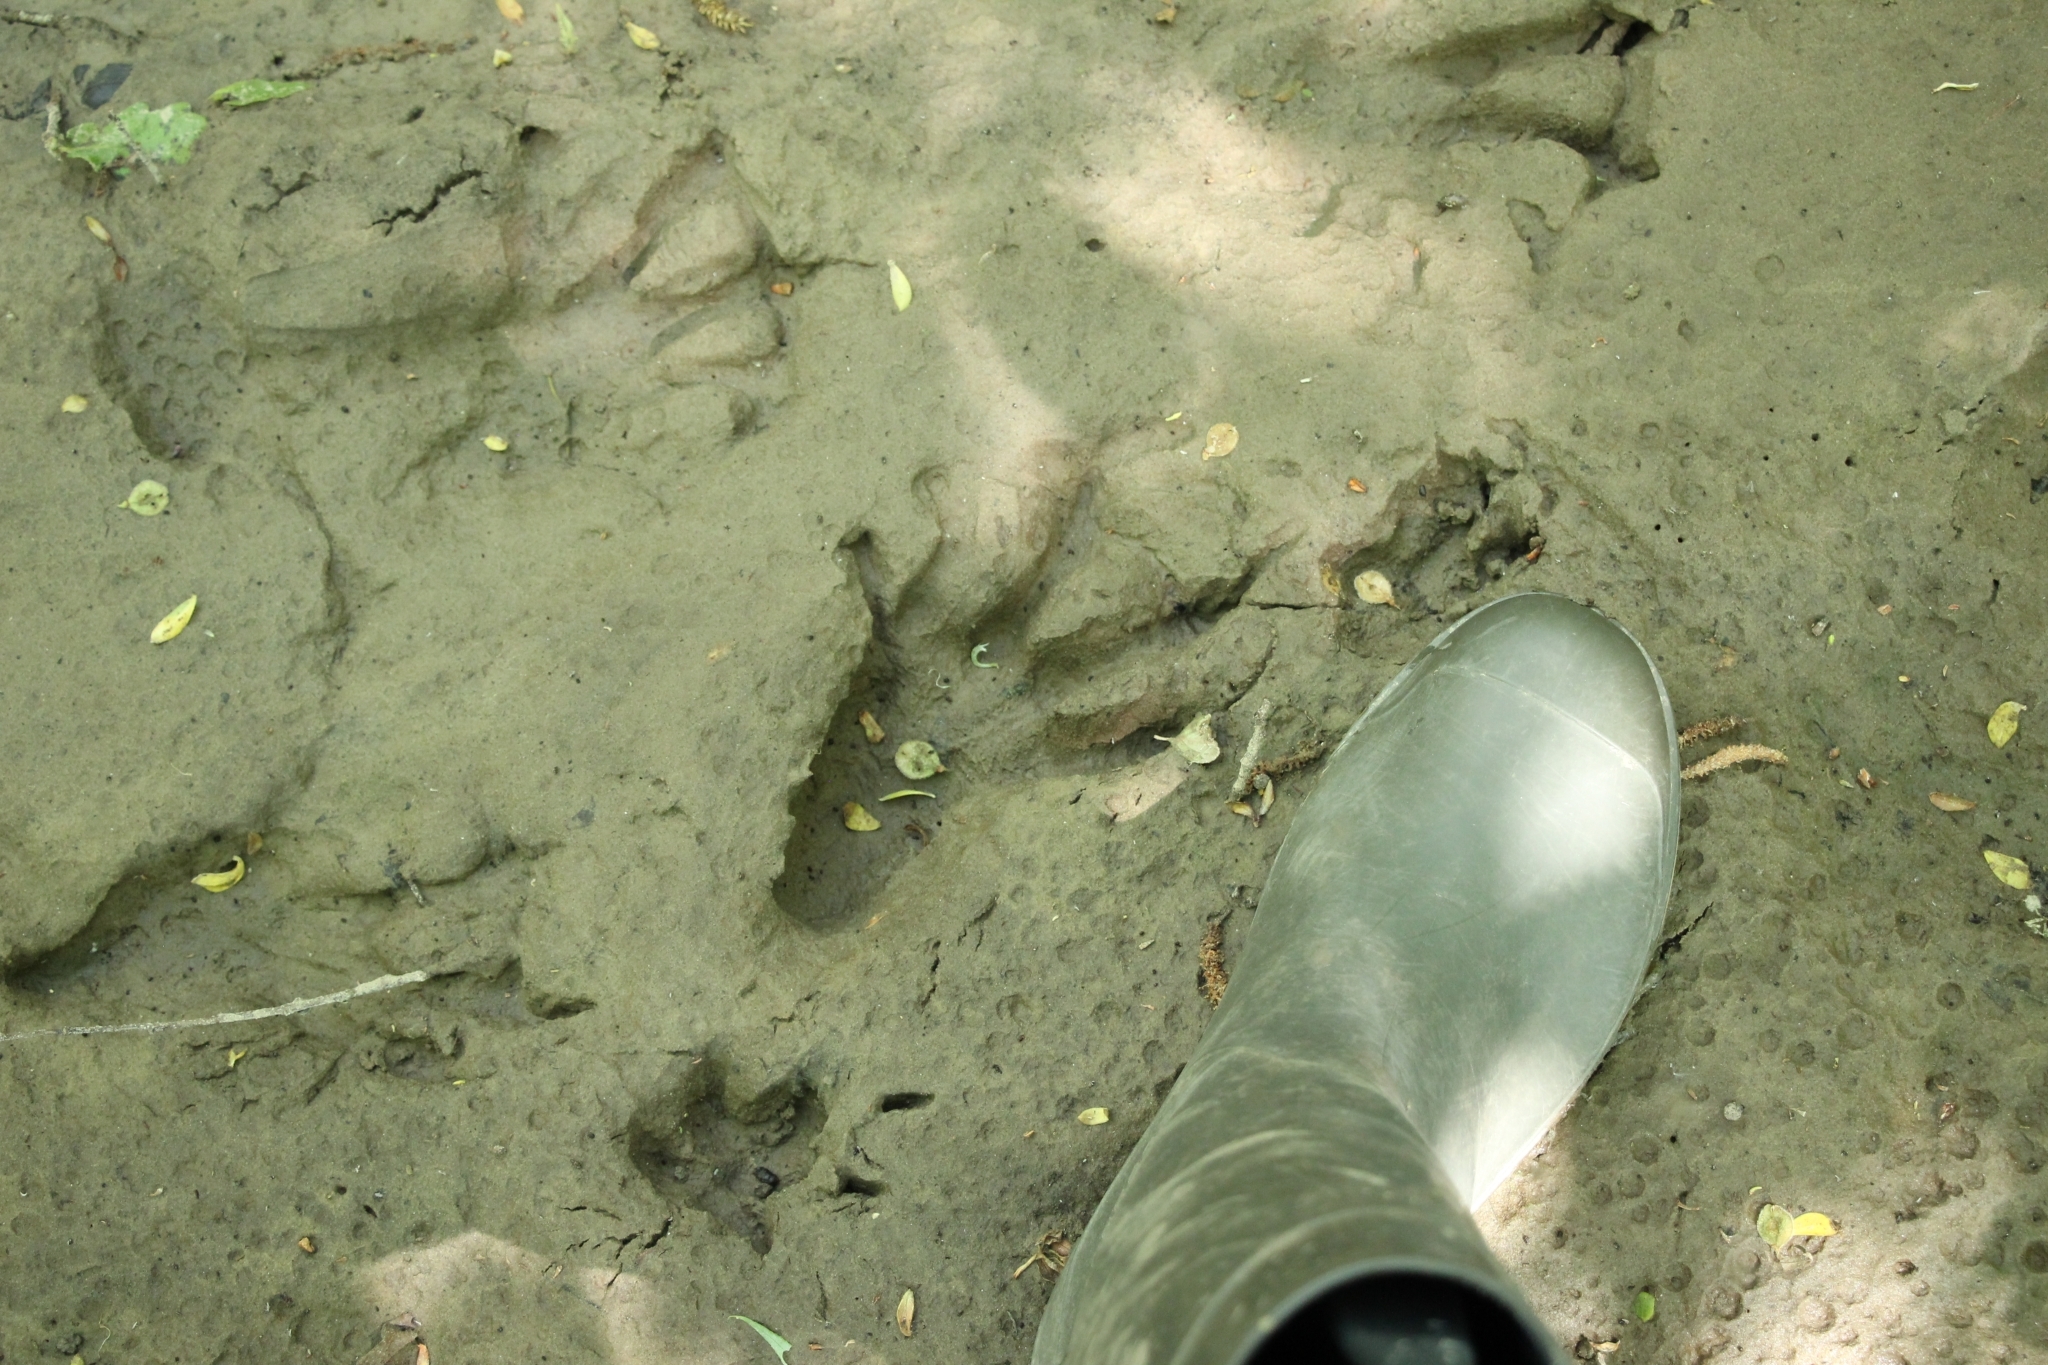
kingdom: Animalia
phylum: Chordata
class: Mammalia
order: Rodentia
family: Castoridae
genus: Castor
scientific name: Castor fiber
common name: Eurasian beaver
